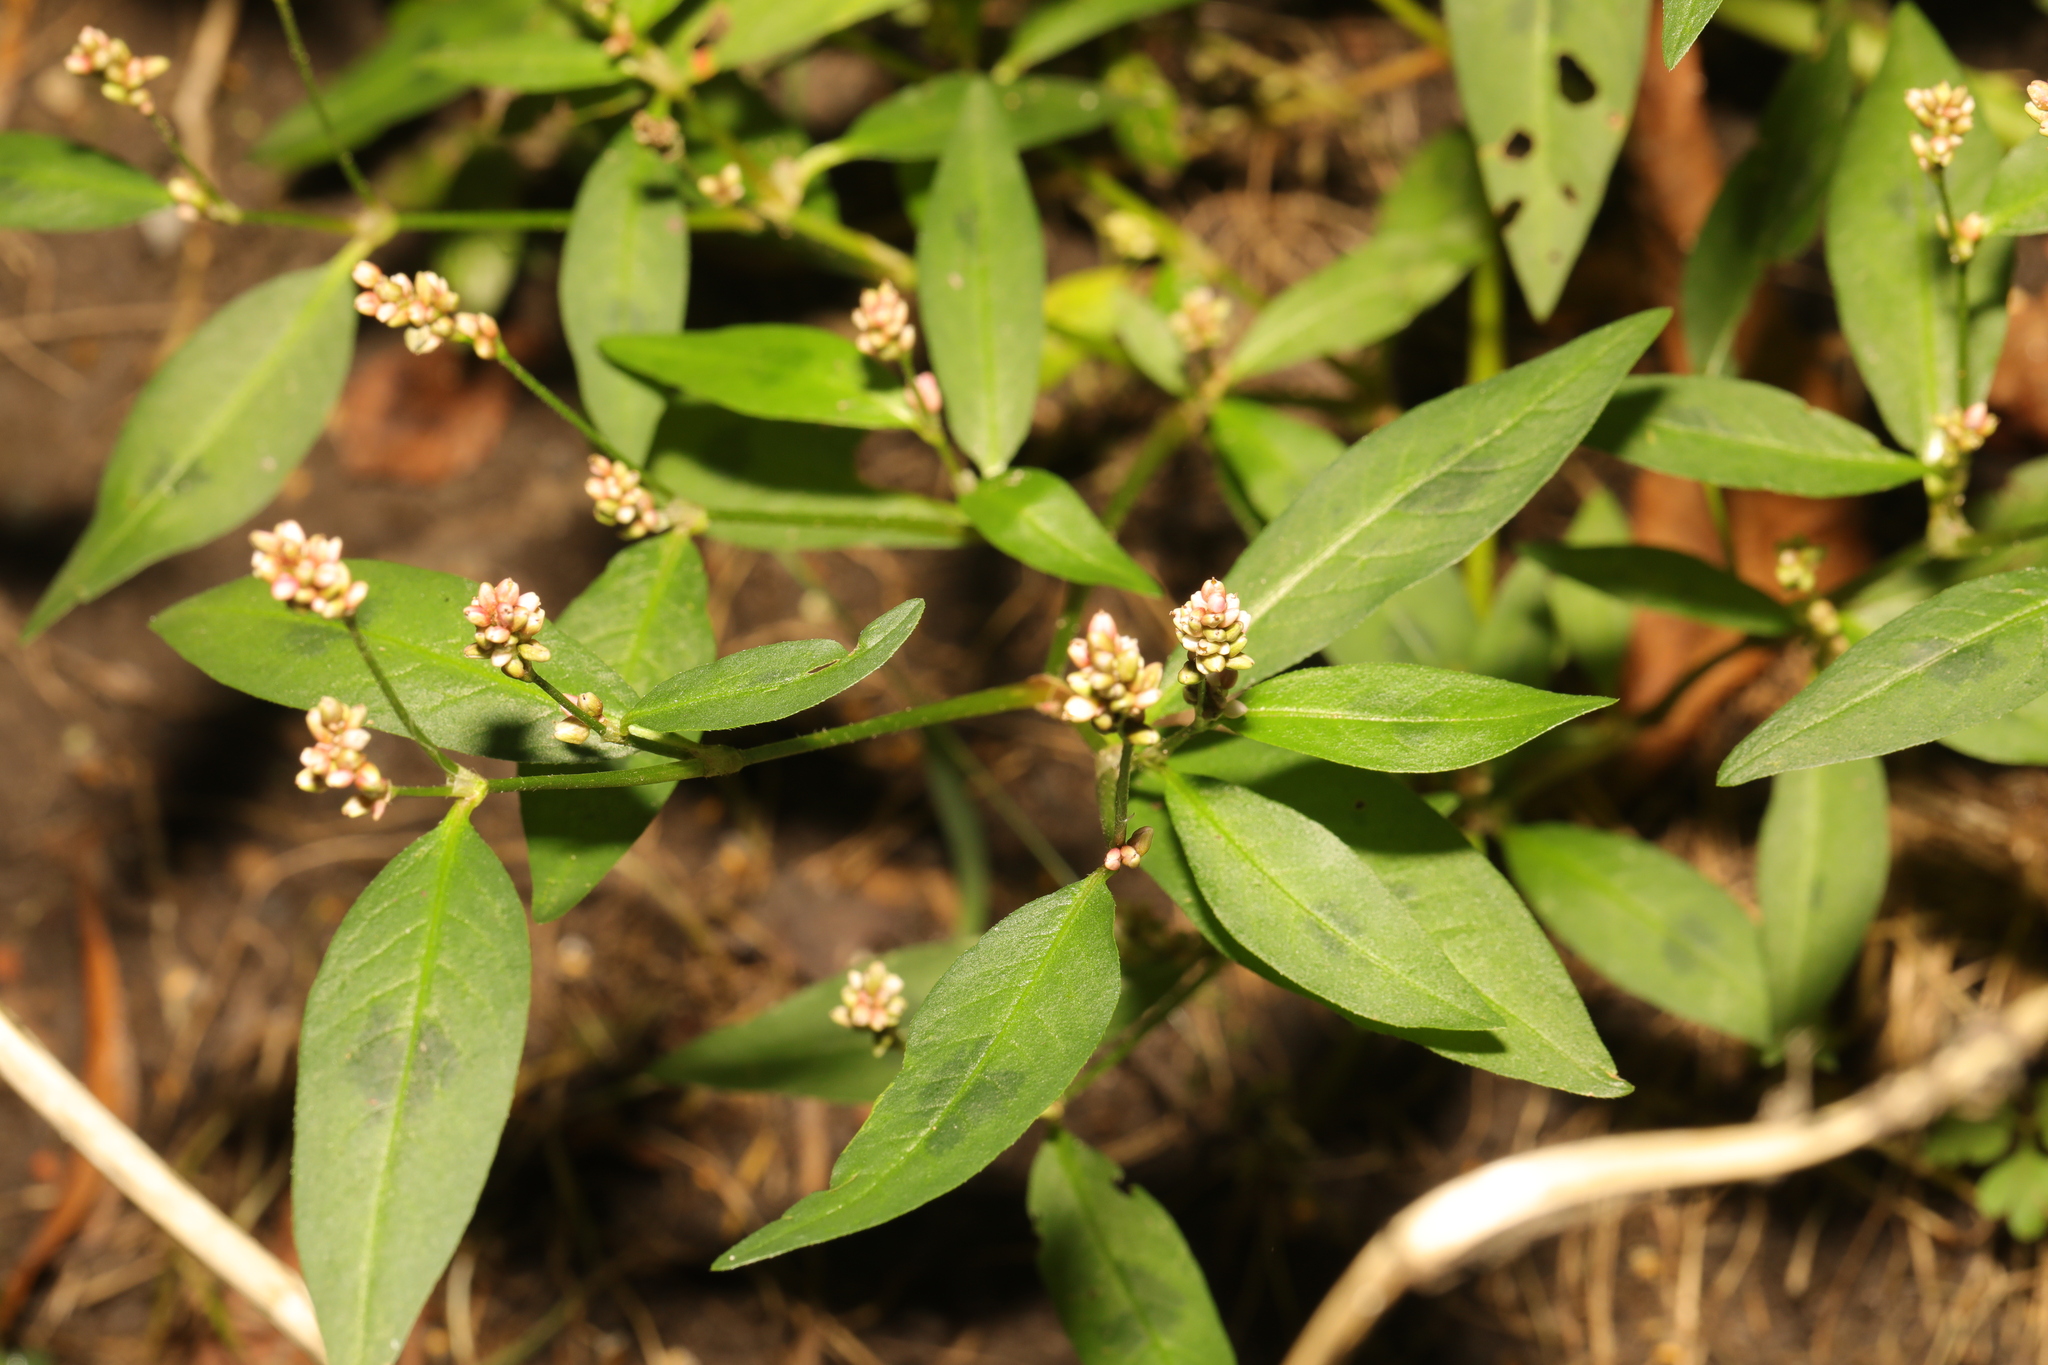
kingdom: Plantae
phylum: Tracheophyta
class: Magnoliopsida
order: Caryophyllales
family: Polygonaceae
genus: Persicaria
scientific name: Persicaria maculosa
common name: Redshank
